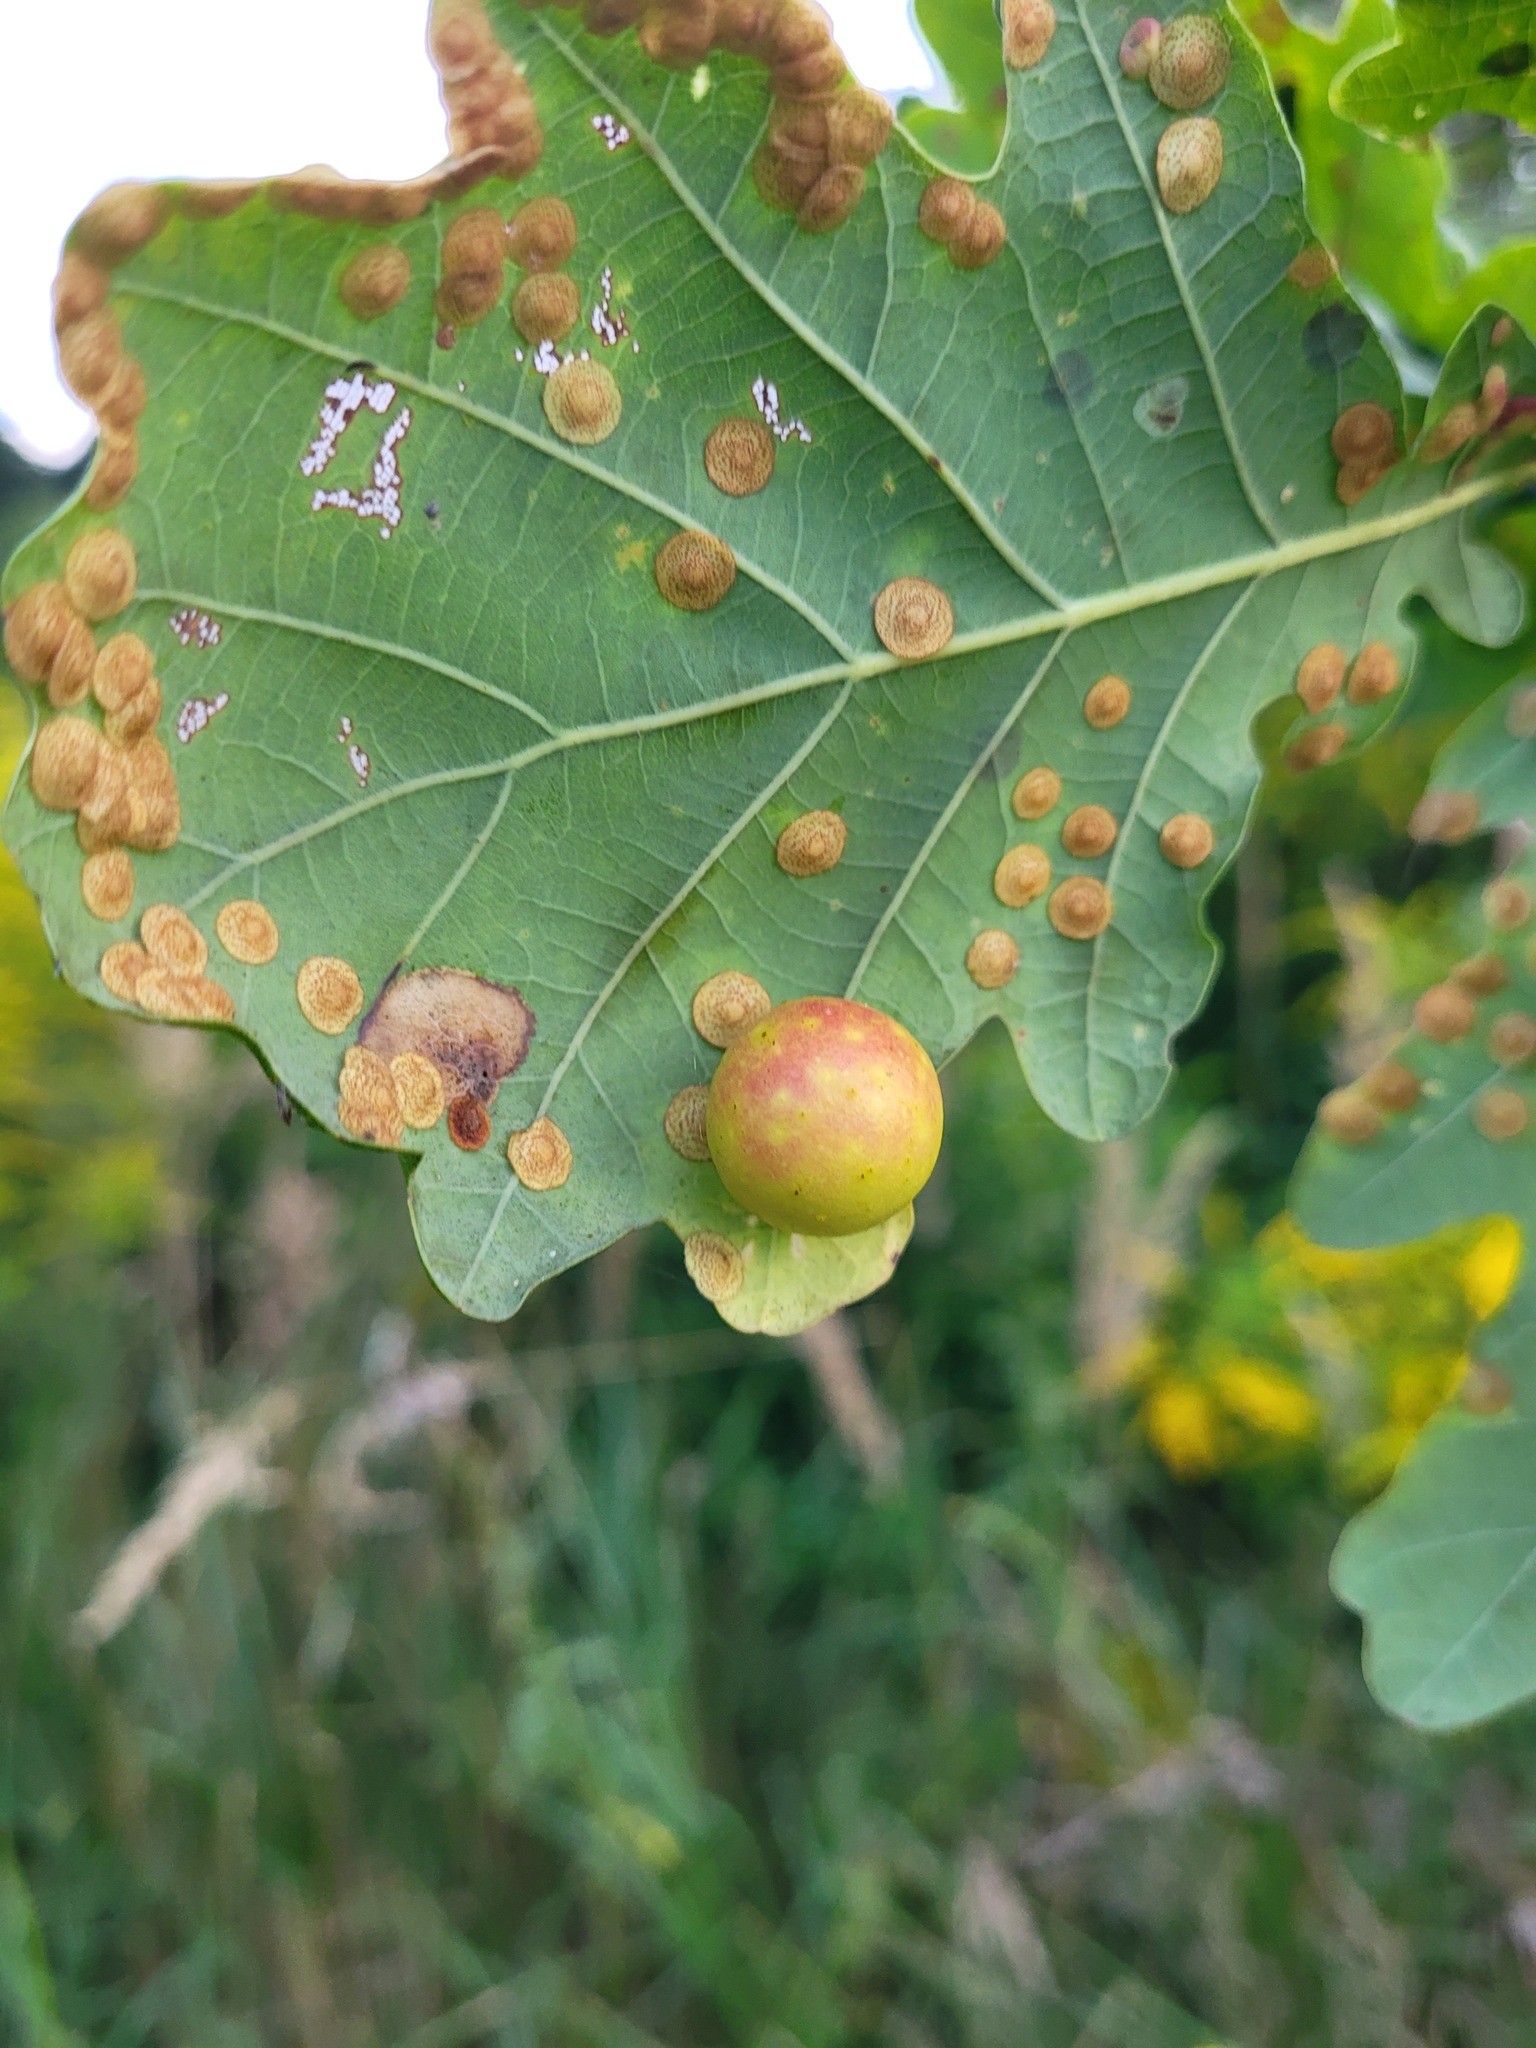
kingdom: Animalia
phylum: Arthropoda
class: Insecta
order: Hymenoptera
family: Cynipidae
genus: Cynips
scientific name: Cynips quercusfolii
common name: Cherry gall
